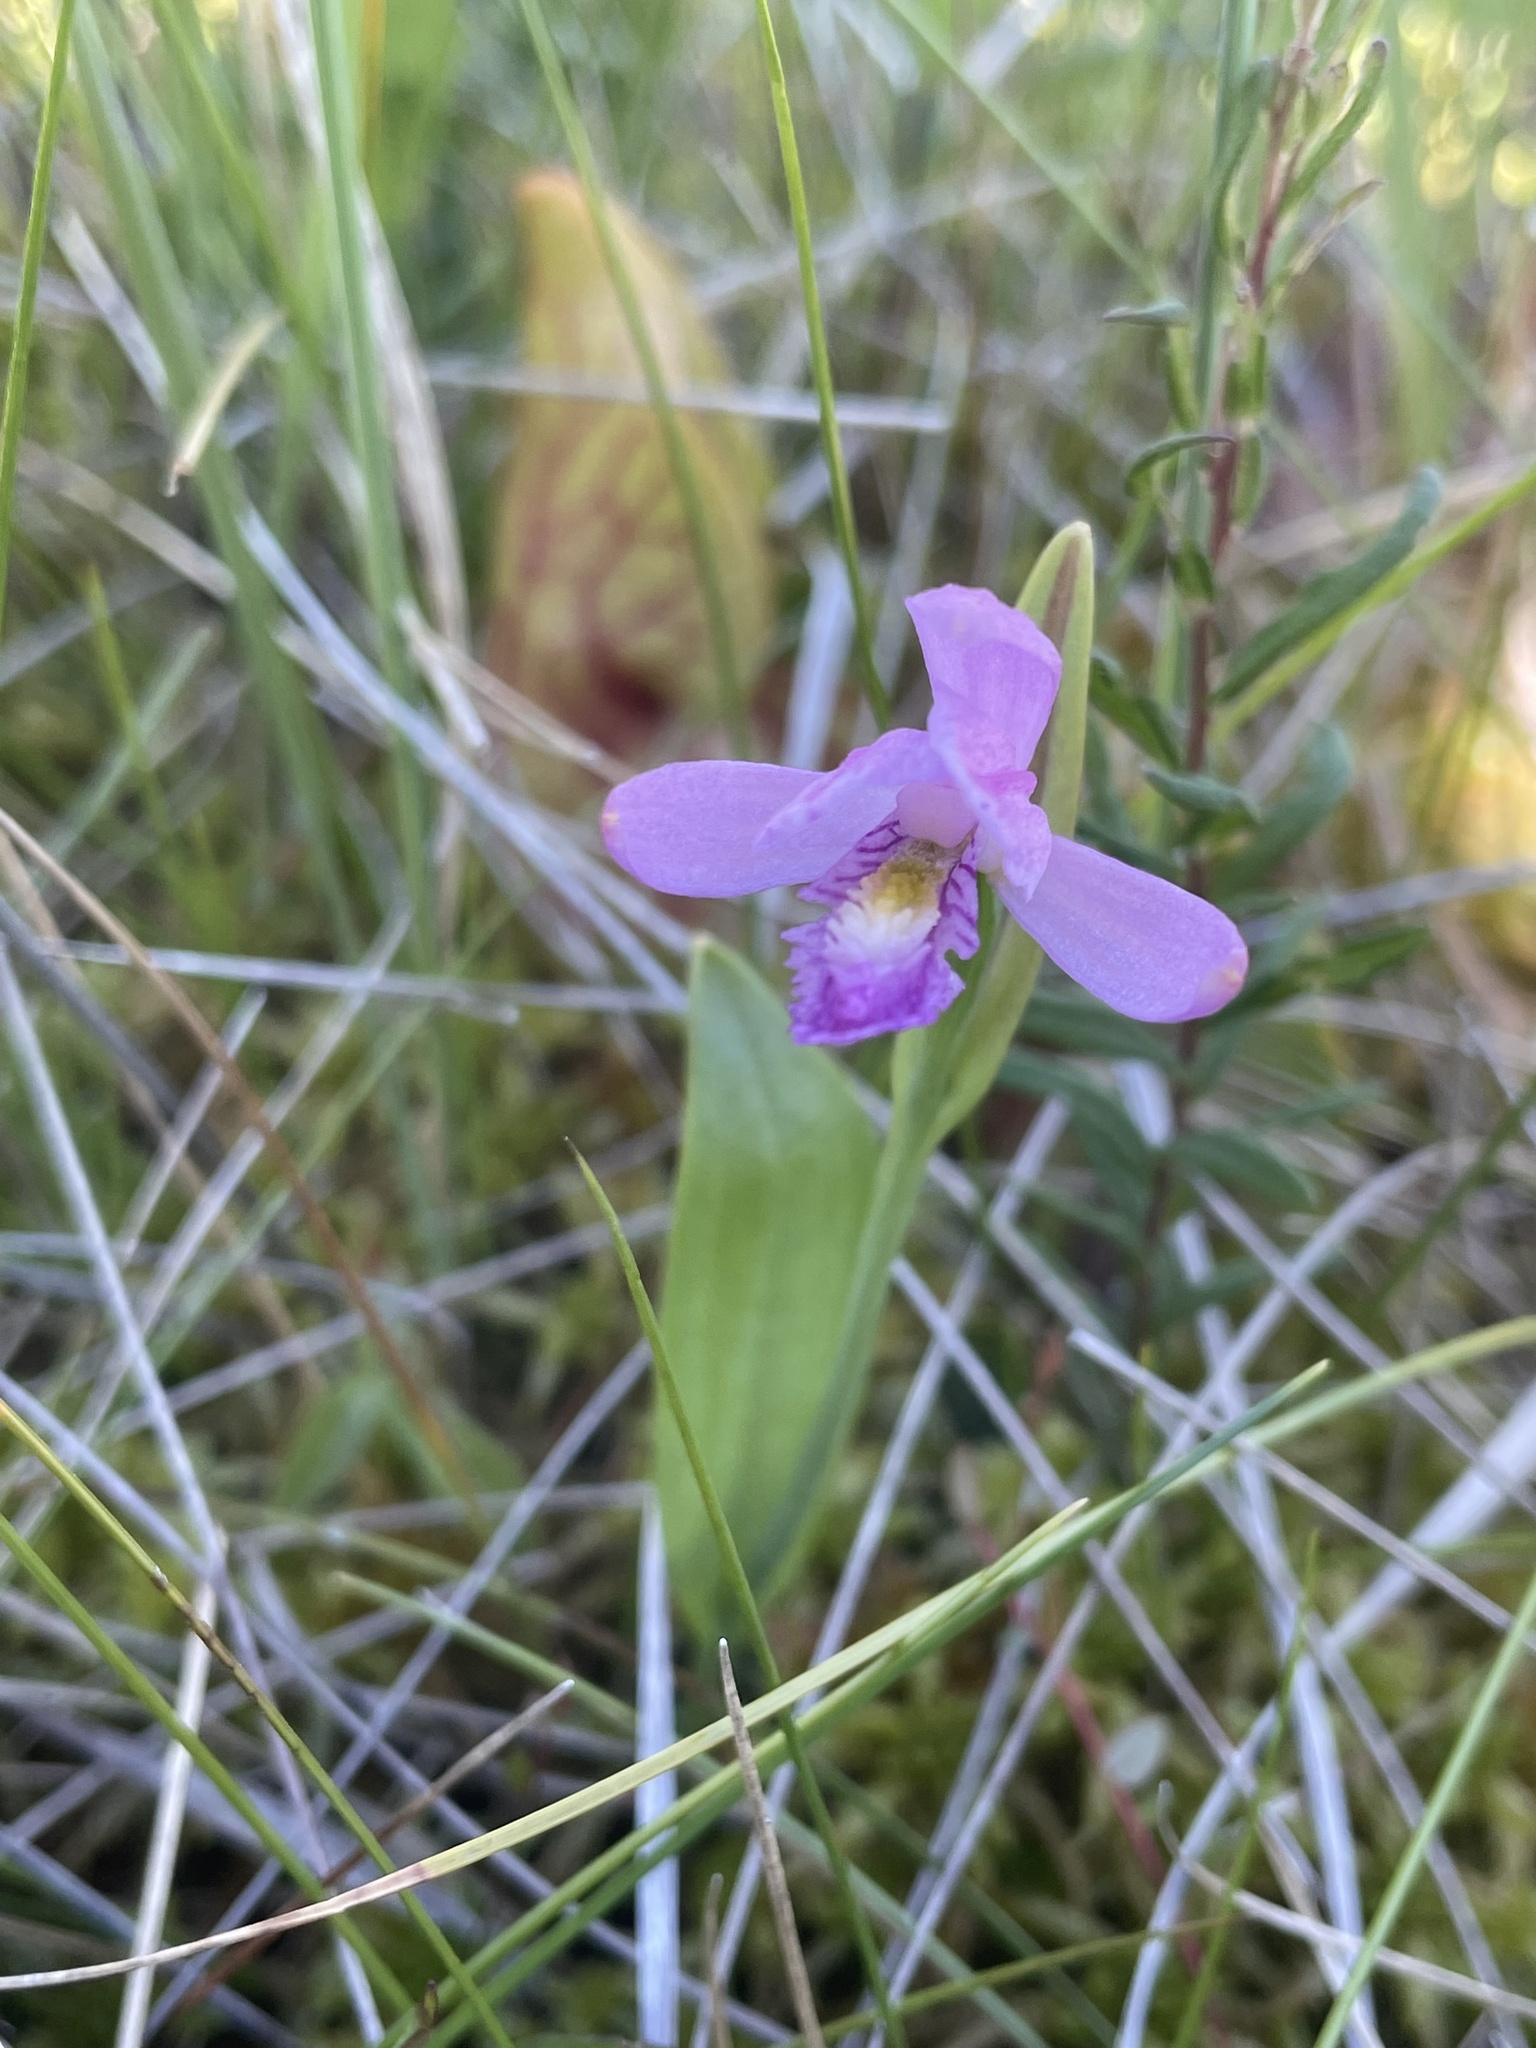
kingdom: Plantae
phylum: Tracheophyta
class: Liliopsida
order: Asparagales
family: Orchidaceae
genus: Pogonia
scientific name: Pogonia ophioglossoides
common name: Rose pogonia
